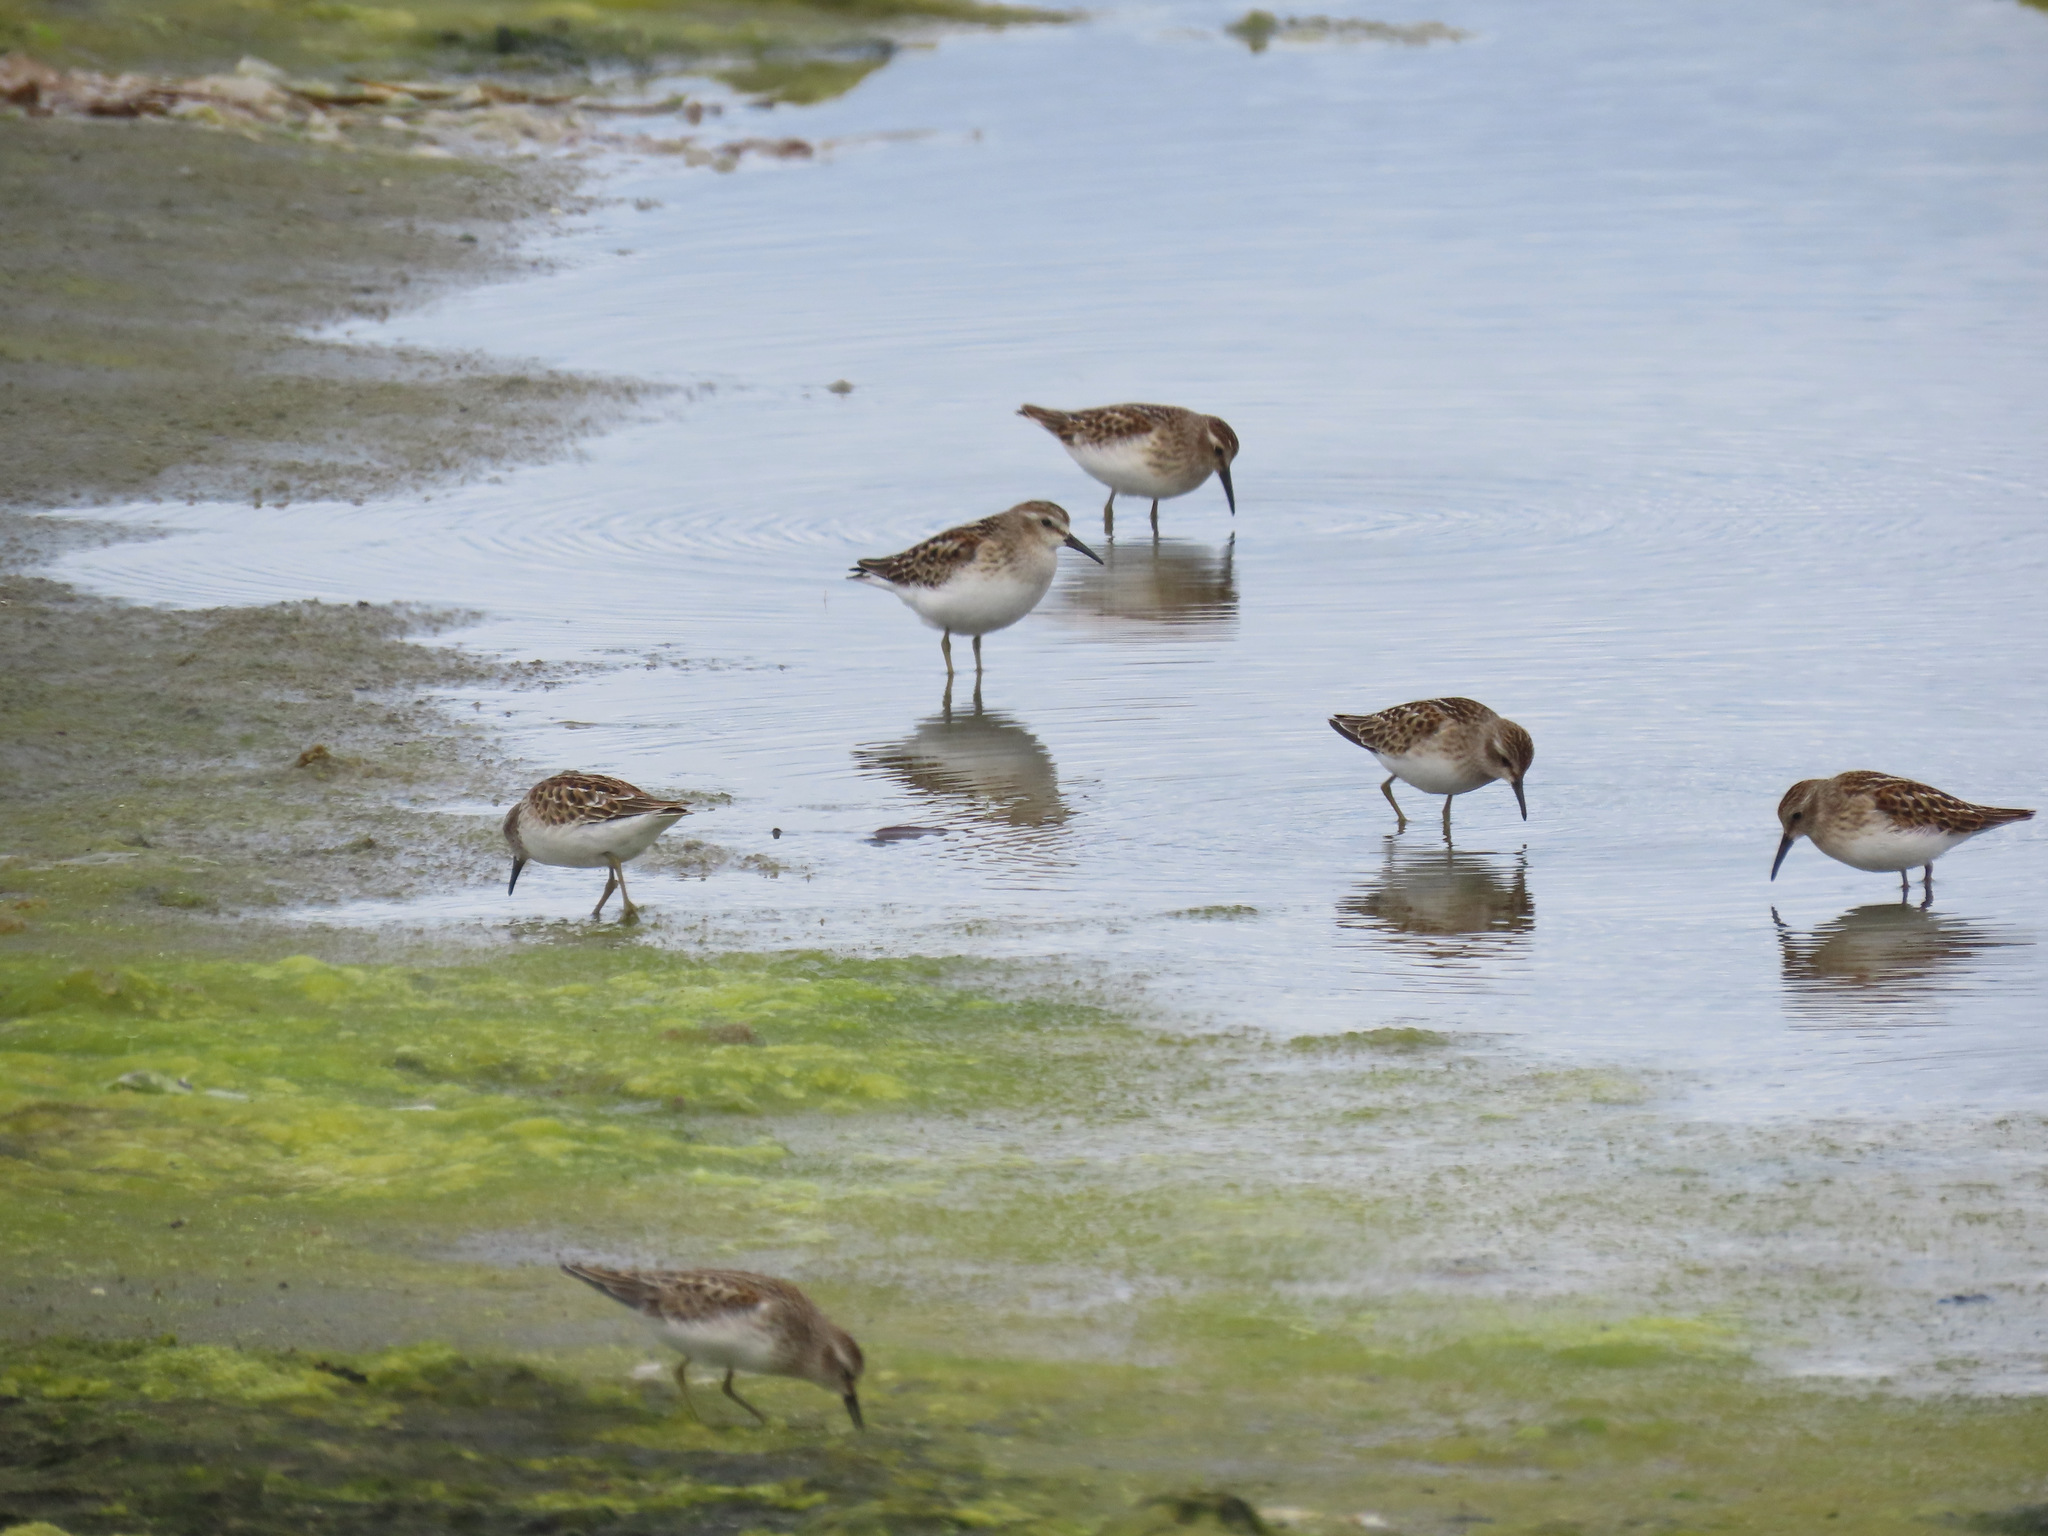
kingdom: Animalia
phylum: Chordata
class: Aves
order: Charadriiformes
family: Scolopacidae
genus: Calidris
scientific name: Calidris minutilla
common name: Least sandpiper
